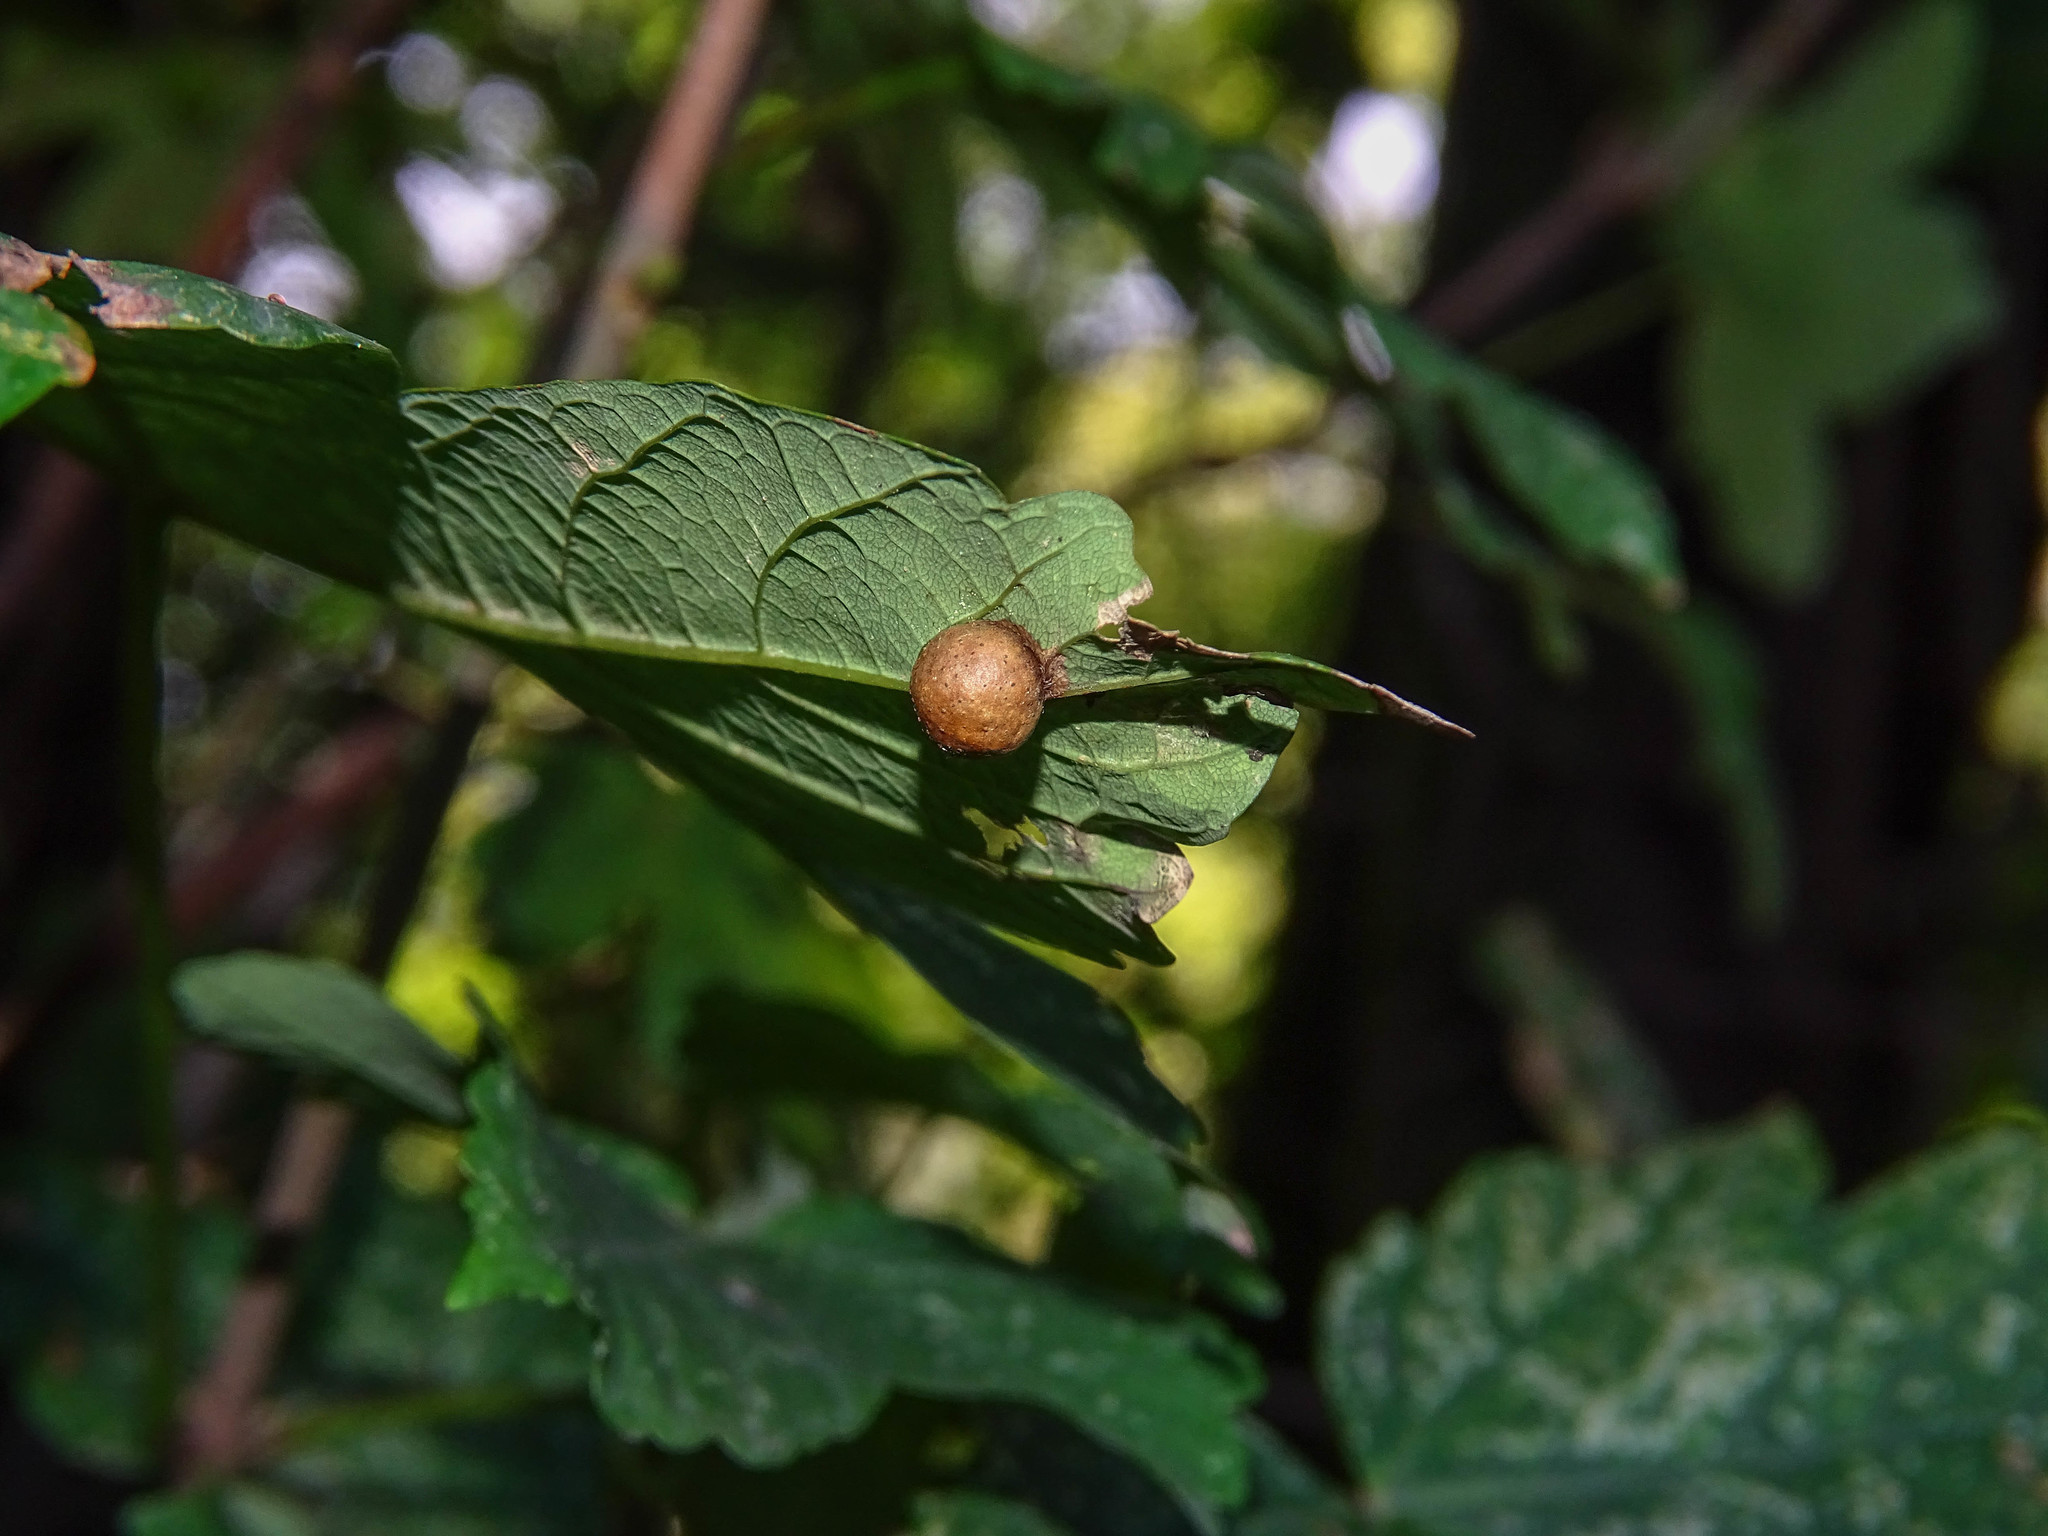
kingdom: Animalia
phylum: Arthropoda
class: Insecta
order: Hymenoptera
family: Cynipidae
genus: Pediaspis
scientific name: Pediaspis aceris
